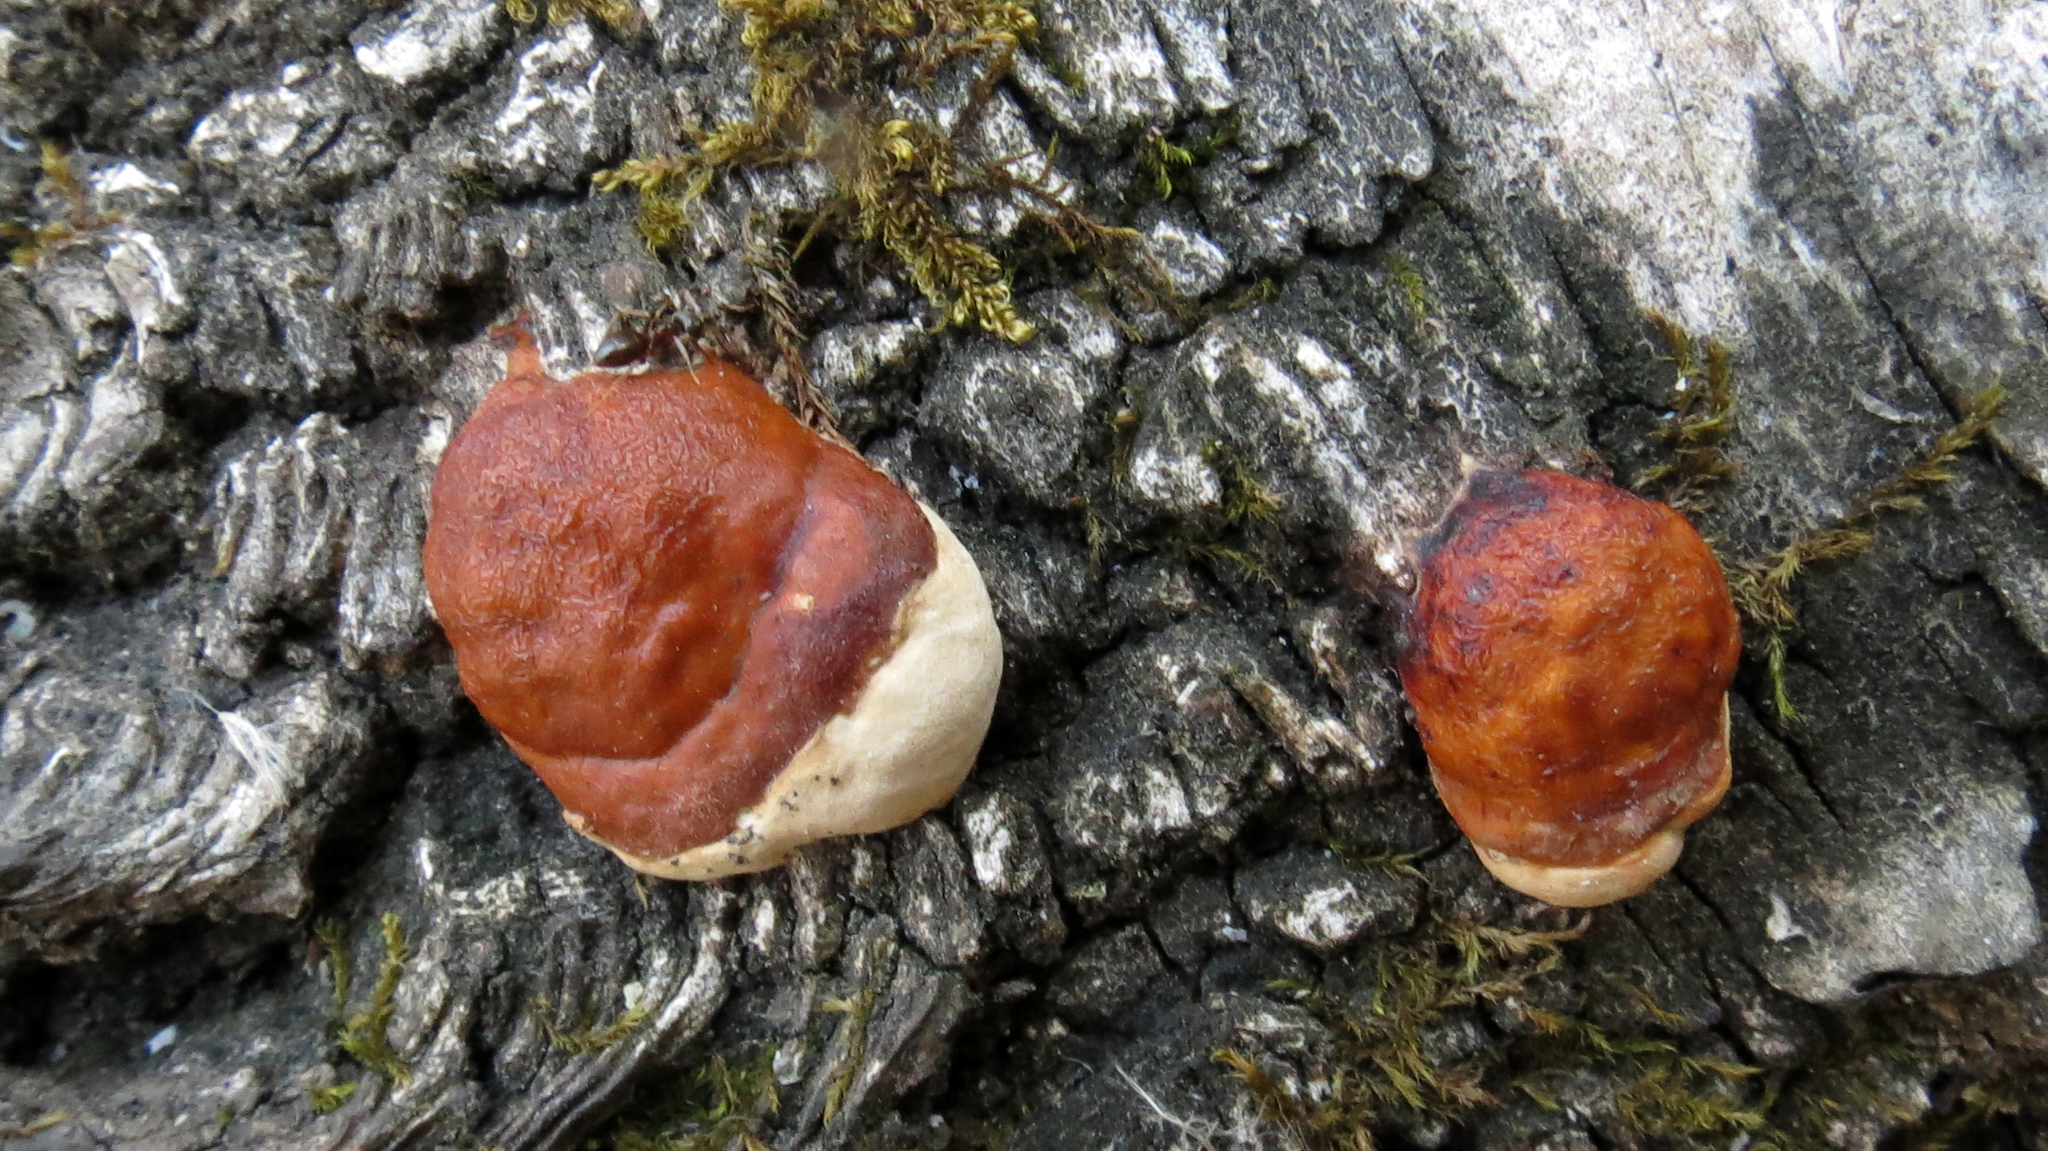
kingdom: Fungi
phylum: Basidiomycota
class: Agaricomycetes
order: Polyporales
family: Fomitopsidaceae
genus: Fomitopsis
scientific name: Fomitopsis pinicola
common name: Red-belted bracket
